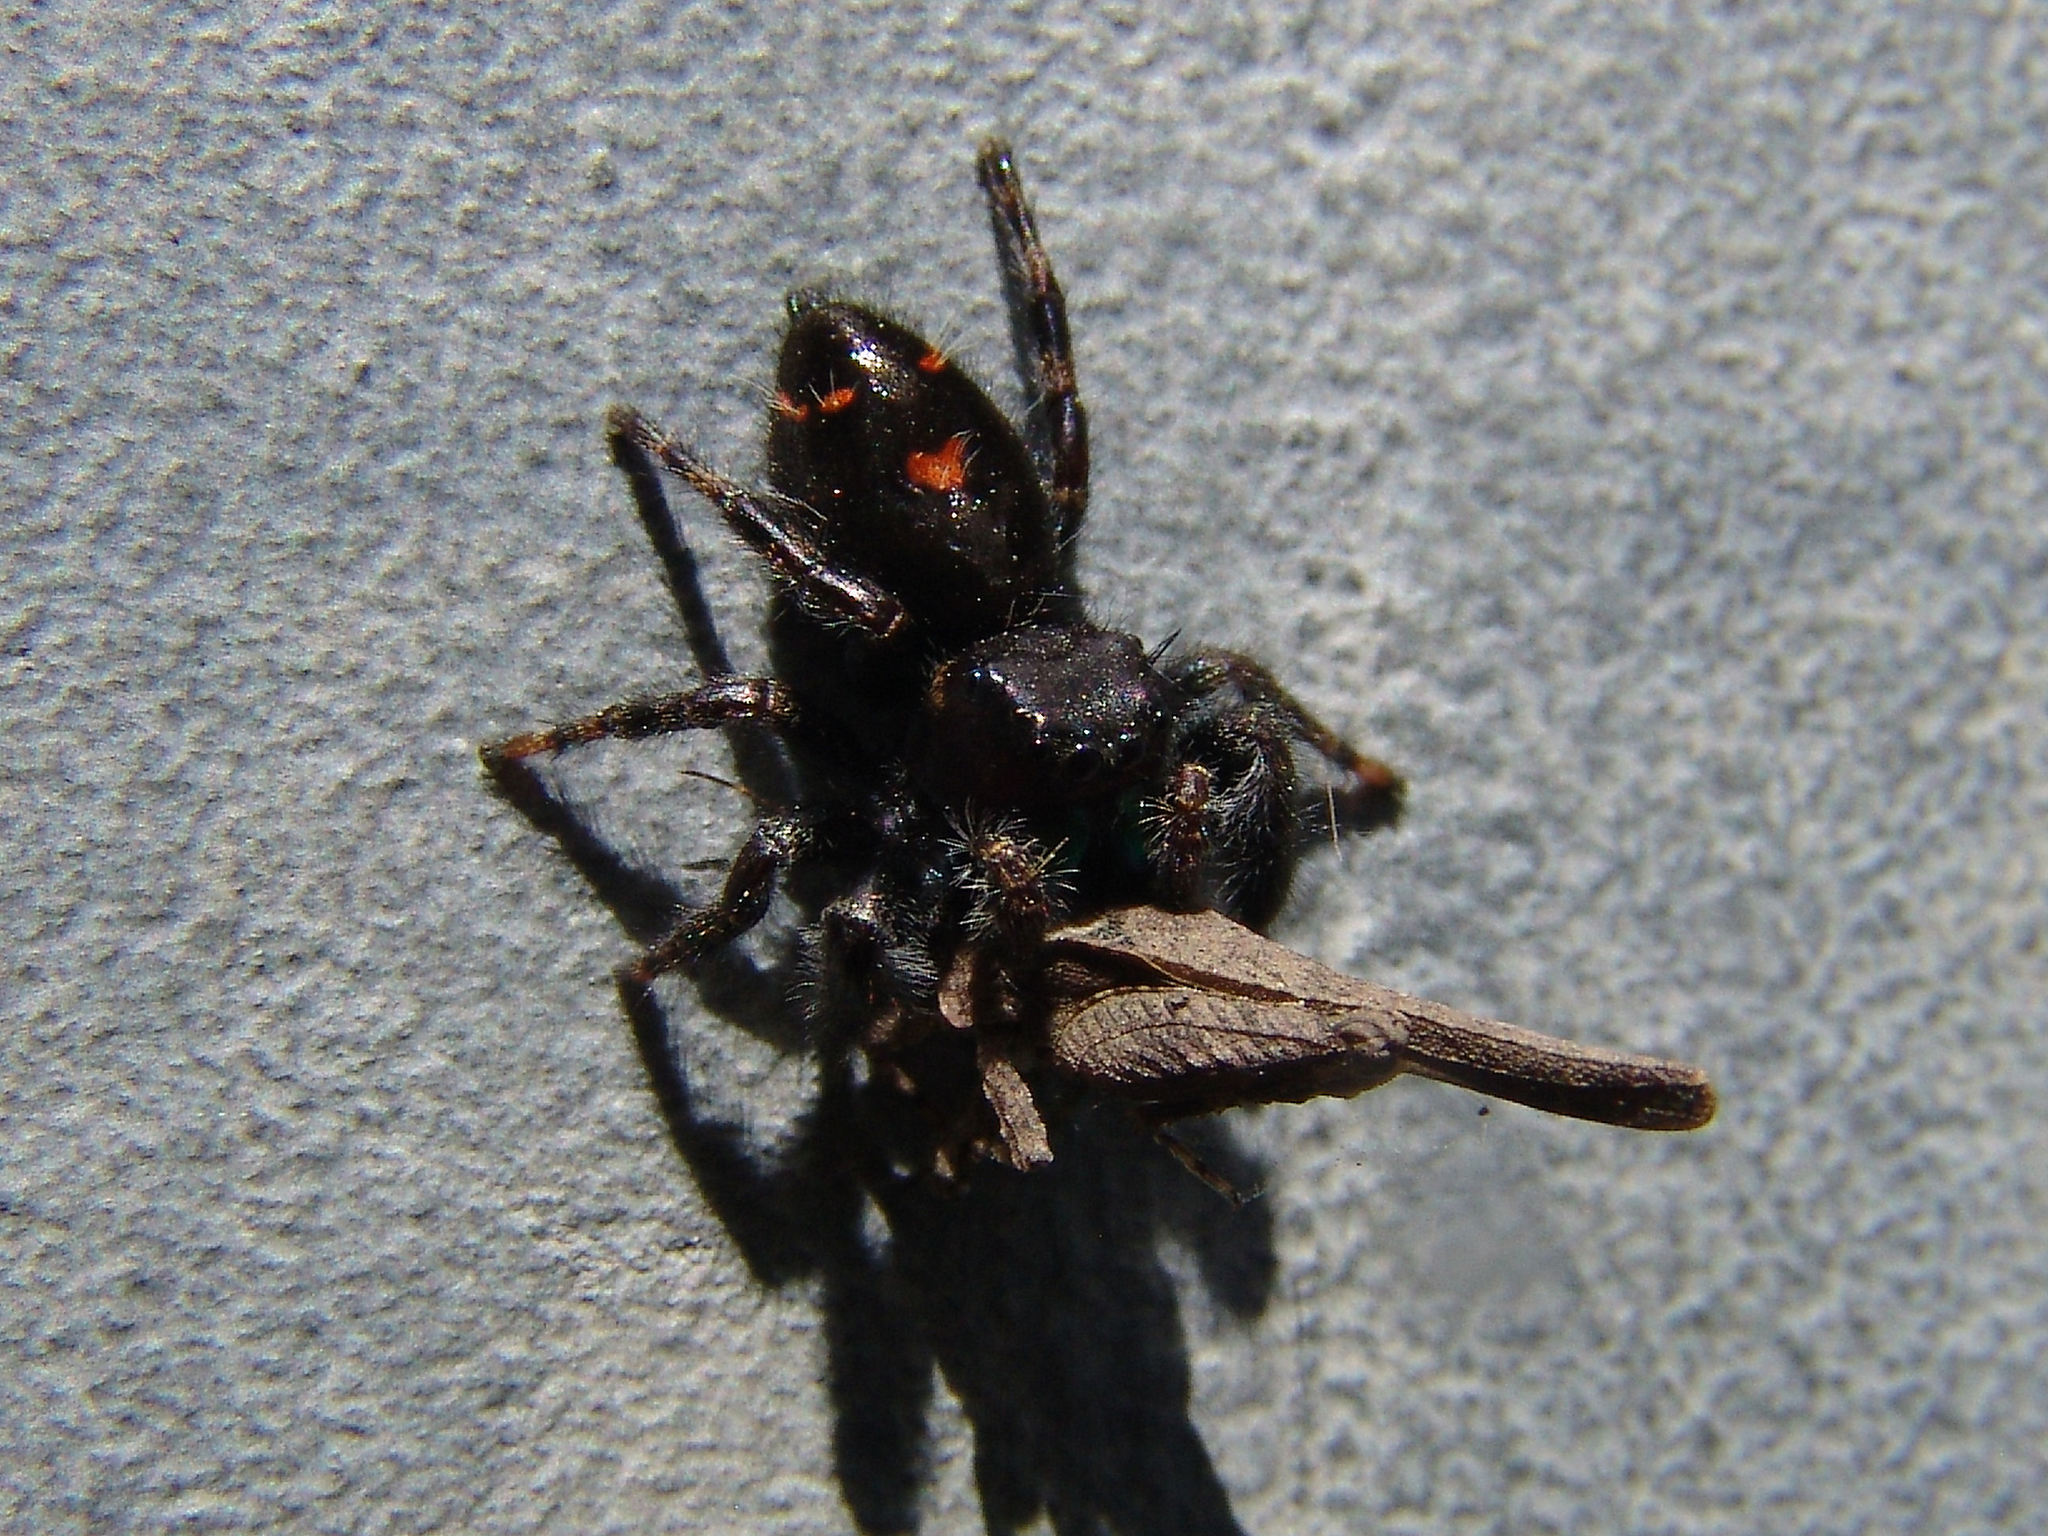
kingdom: Animalia
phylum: Arthropoda
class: Arachnida
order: Araneae
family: Salticidae
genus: Phidippus
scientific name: Phidippus audax
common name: Bold jumper
